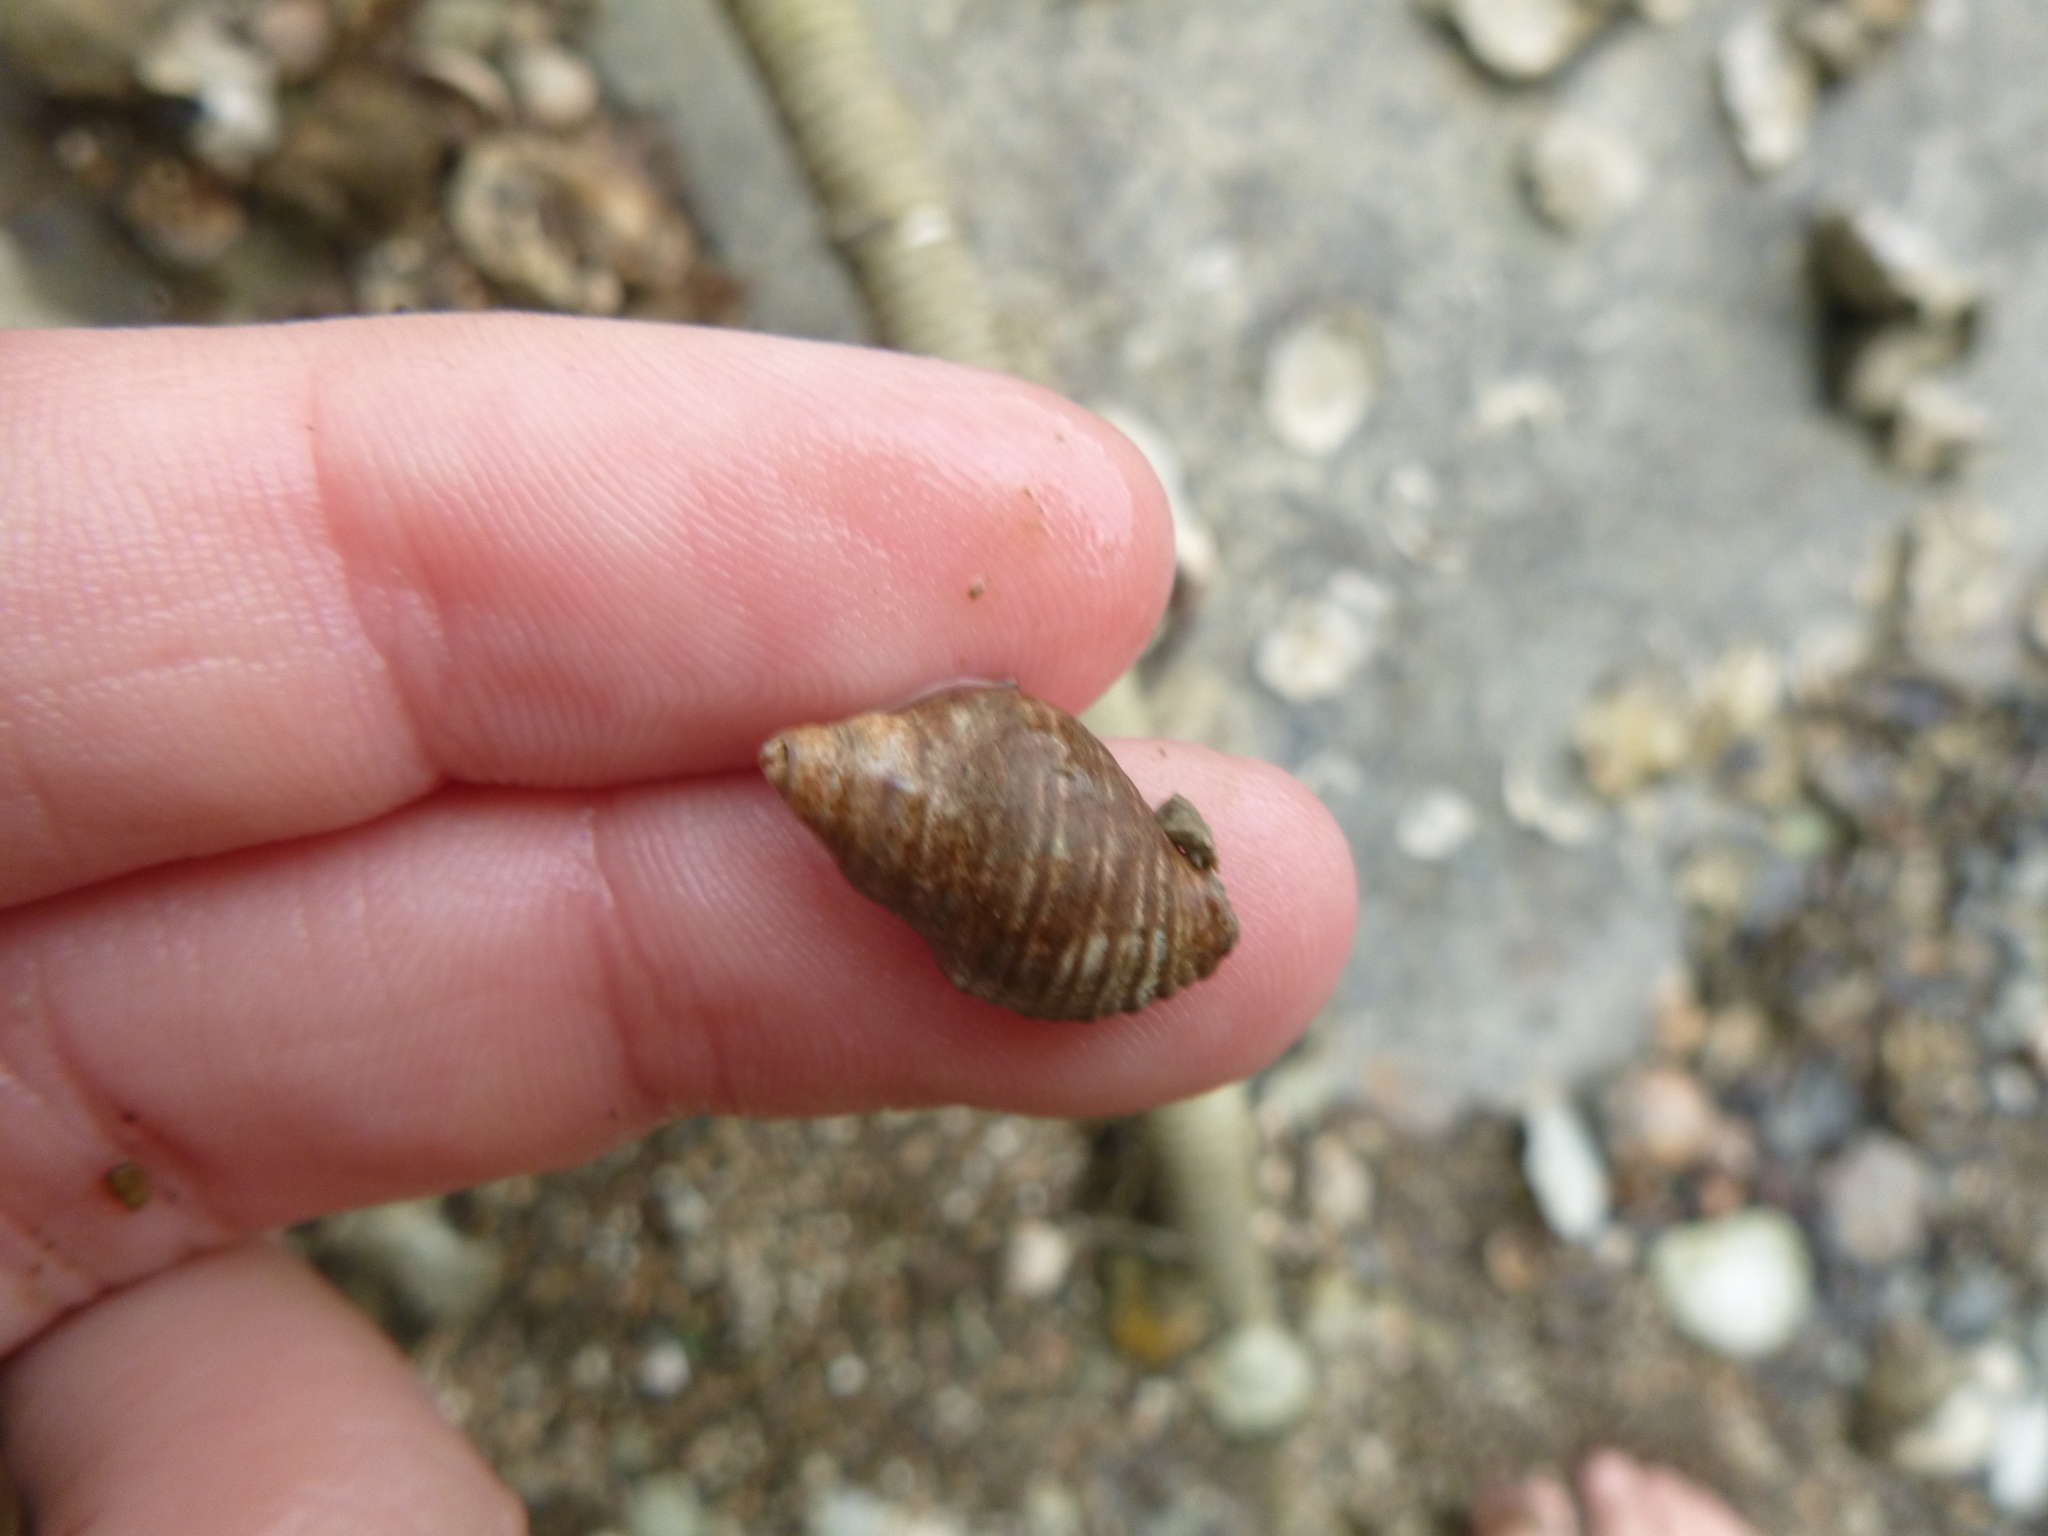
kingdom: Animalia
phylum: Mollusca
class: Gastropoda
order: Neogastropoda
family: Muricidae
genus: Haustrum
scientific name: Haustrum scobina
